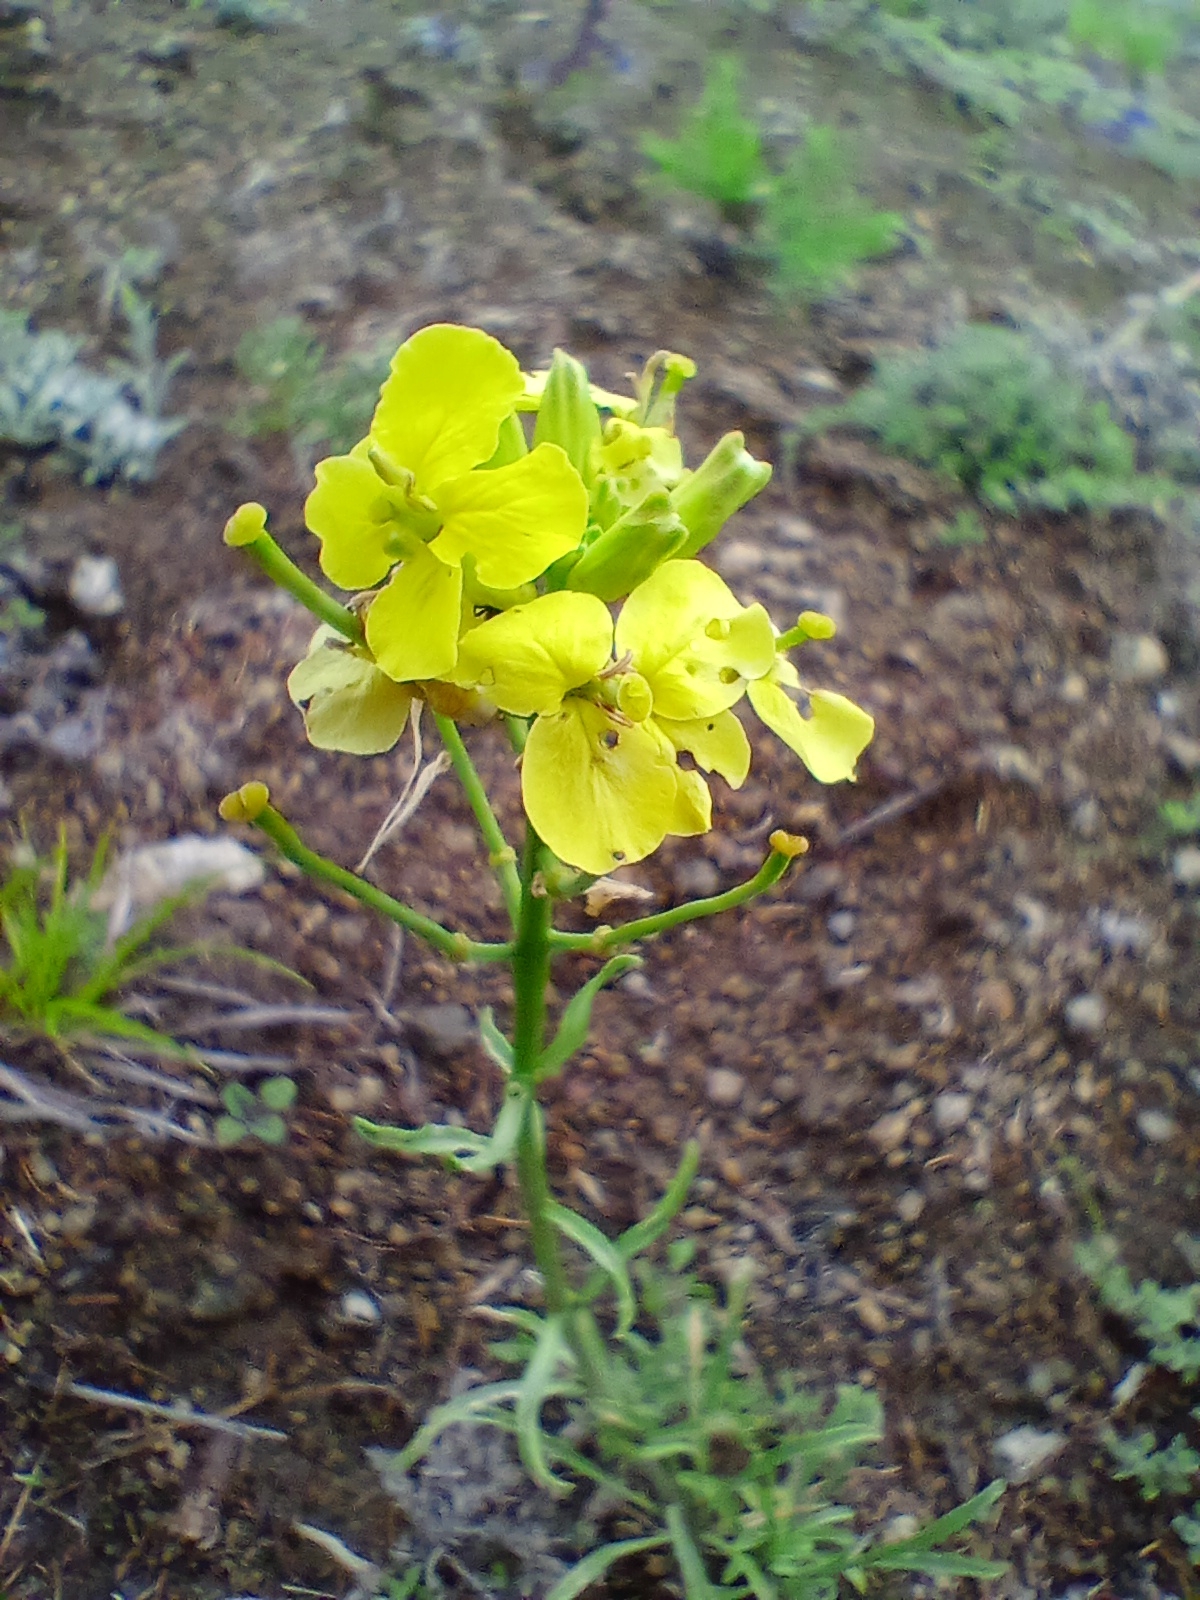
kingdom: Plantae
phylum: Tracheophyta
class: Magnoliopsida
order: Brassicales
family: Brassicaceae
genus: Erysimum
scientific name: Erysimum flavum
